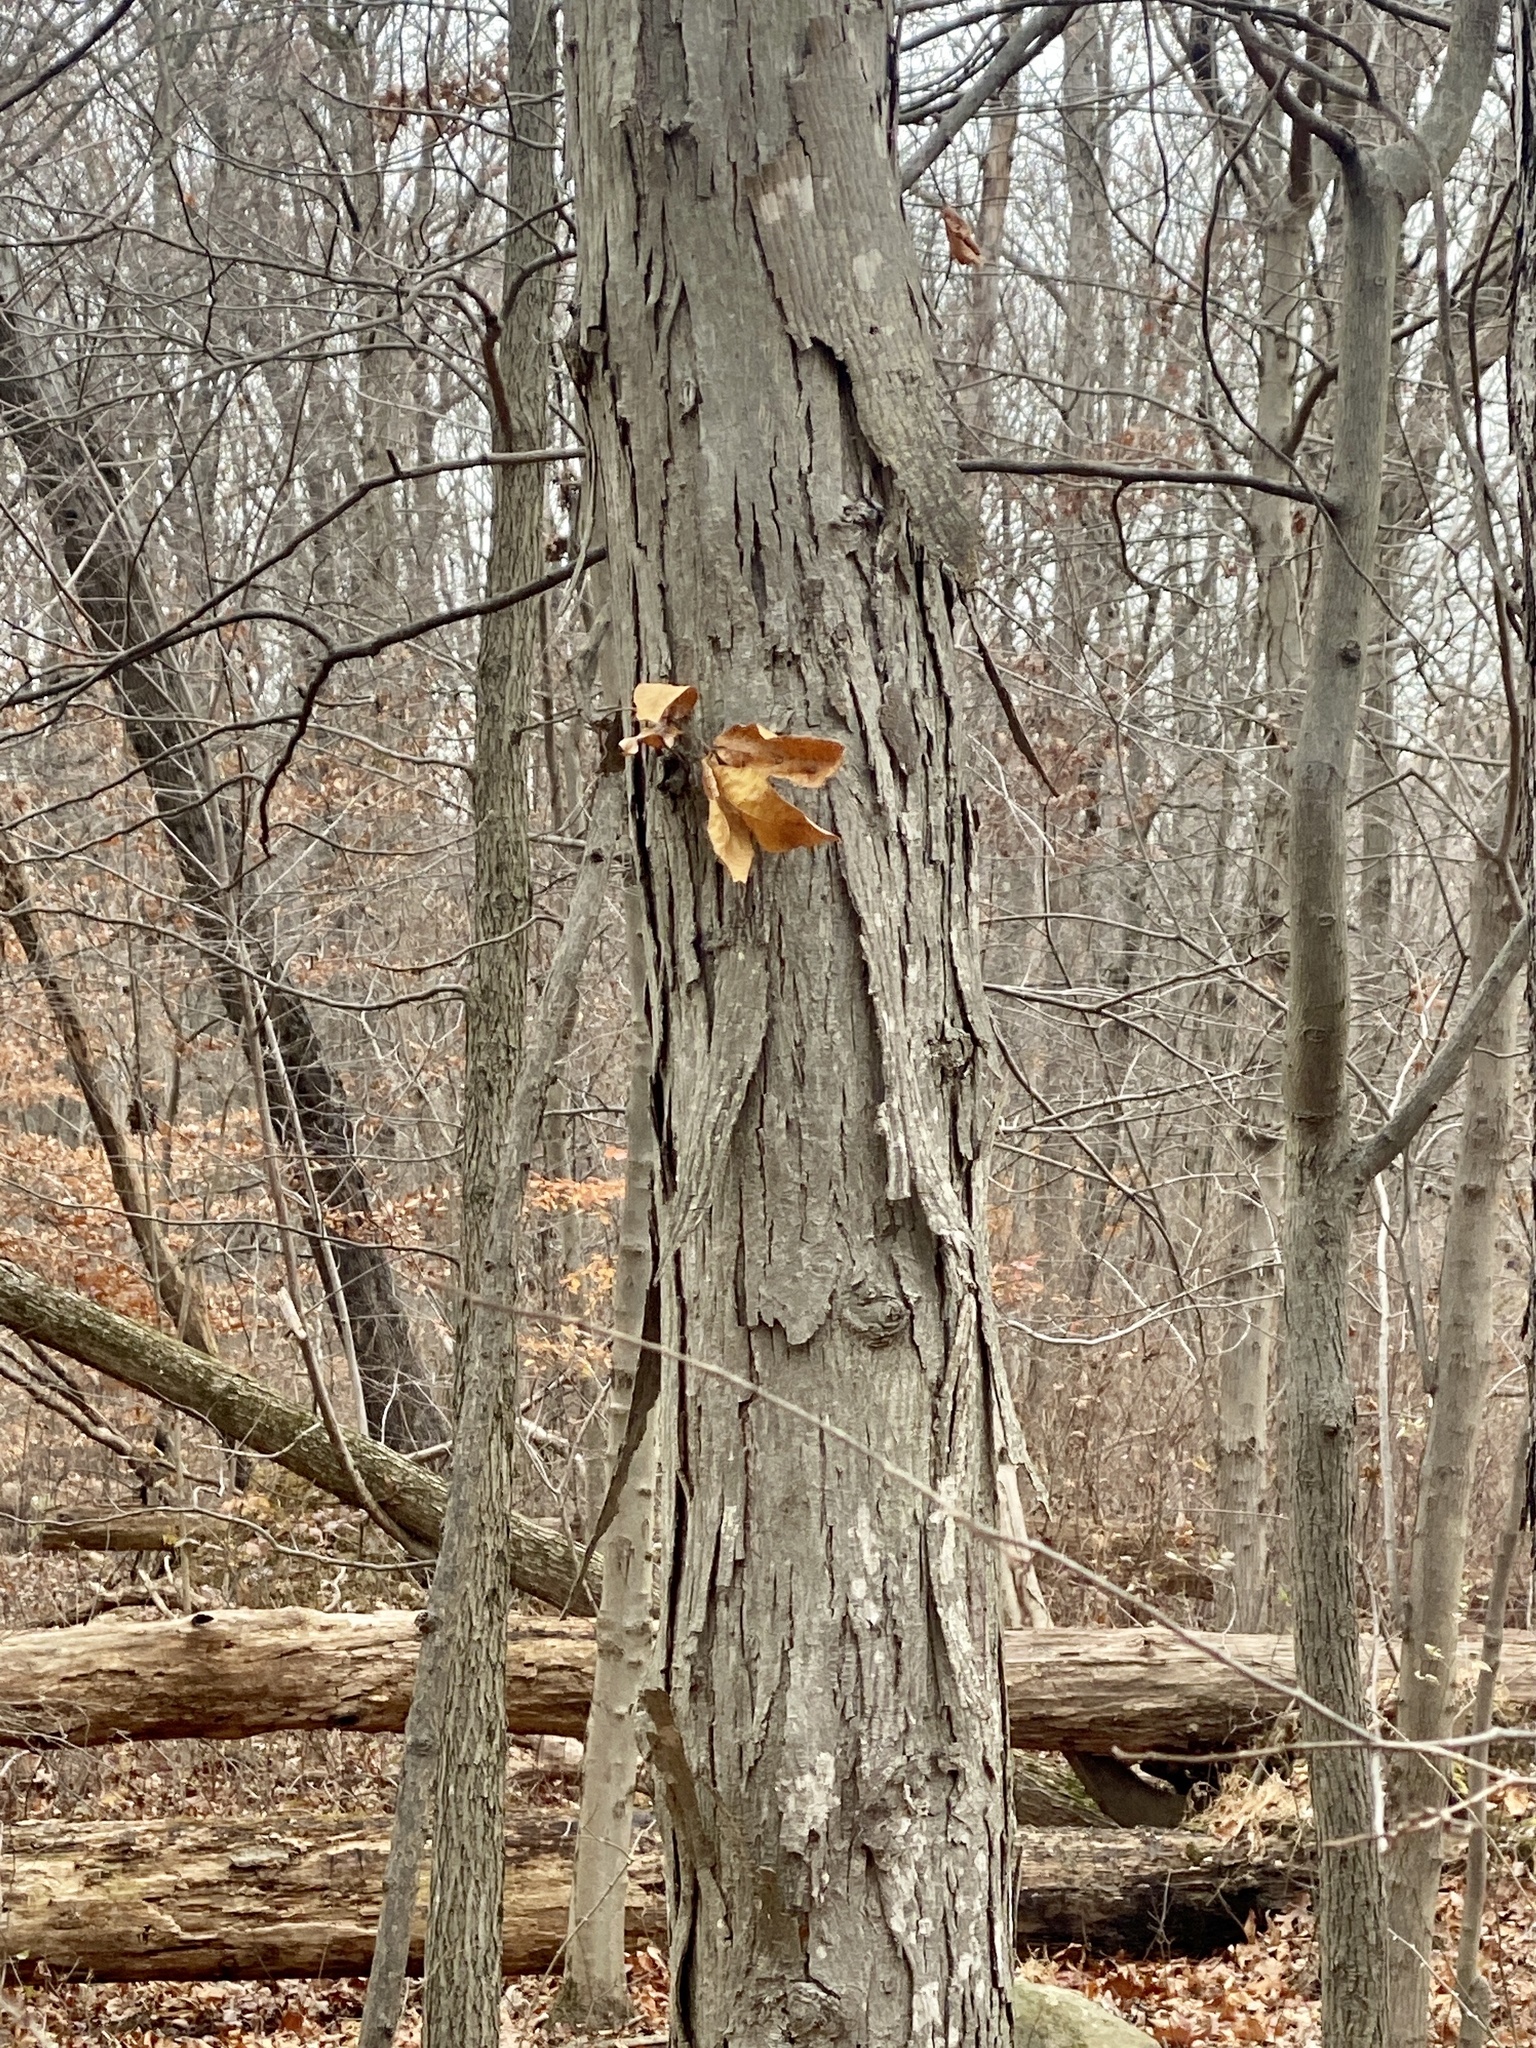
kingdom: Plantae
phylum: Tracheophyta
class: Magnoliopsida
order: Fagales
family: Juglandaceae
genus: Carya
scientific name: Carya ovata
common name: Shagbark hickory
